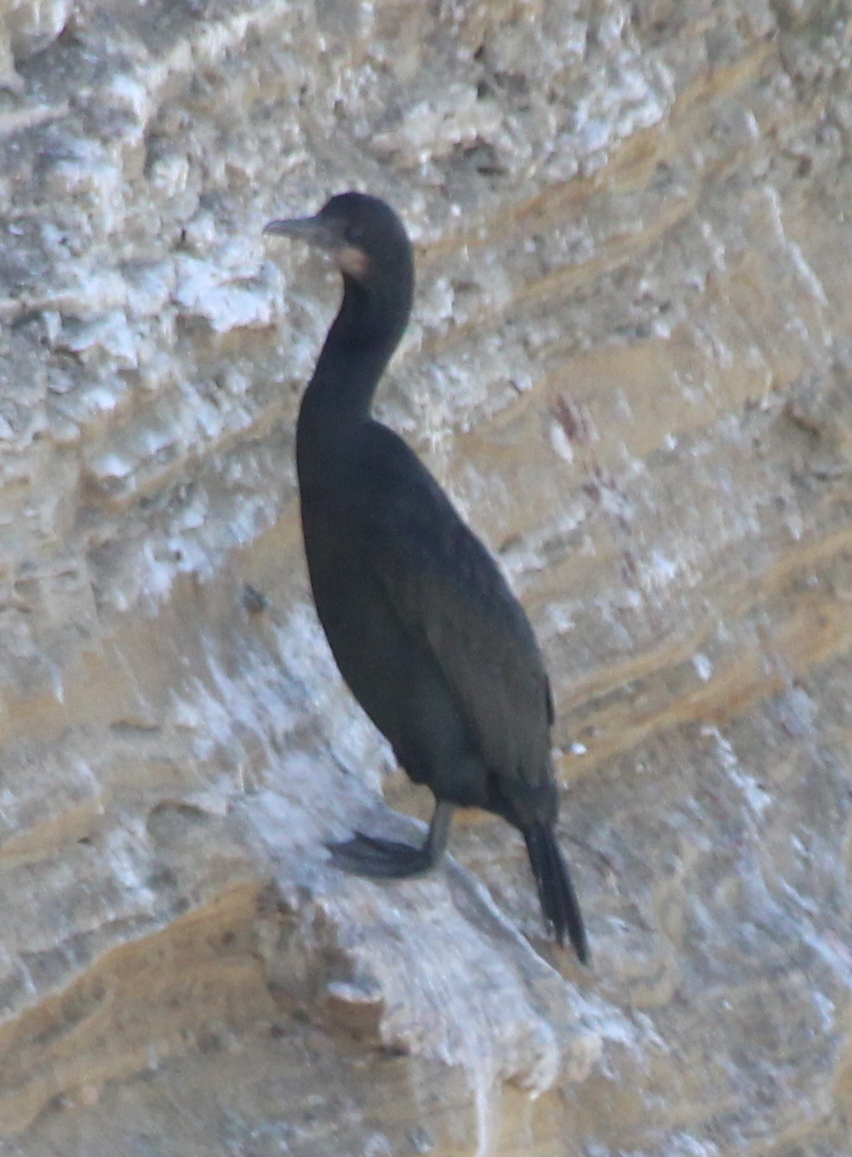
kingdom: Animalia
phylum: Chordata
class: Aves
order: Suliformes
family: Phalacrocoracidae
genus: Urile
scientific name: Urile penicillatus
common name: Brandt's cormorant
